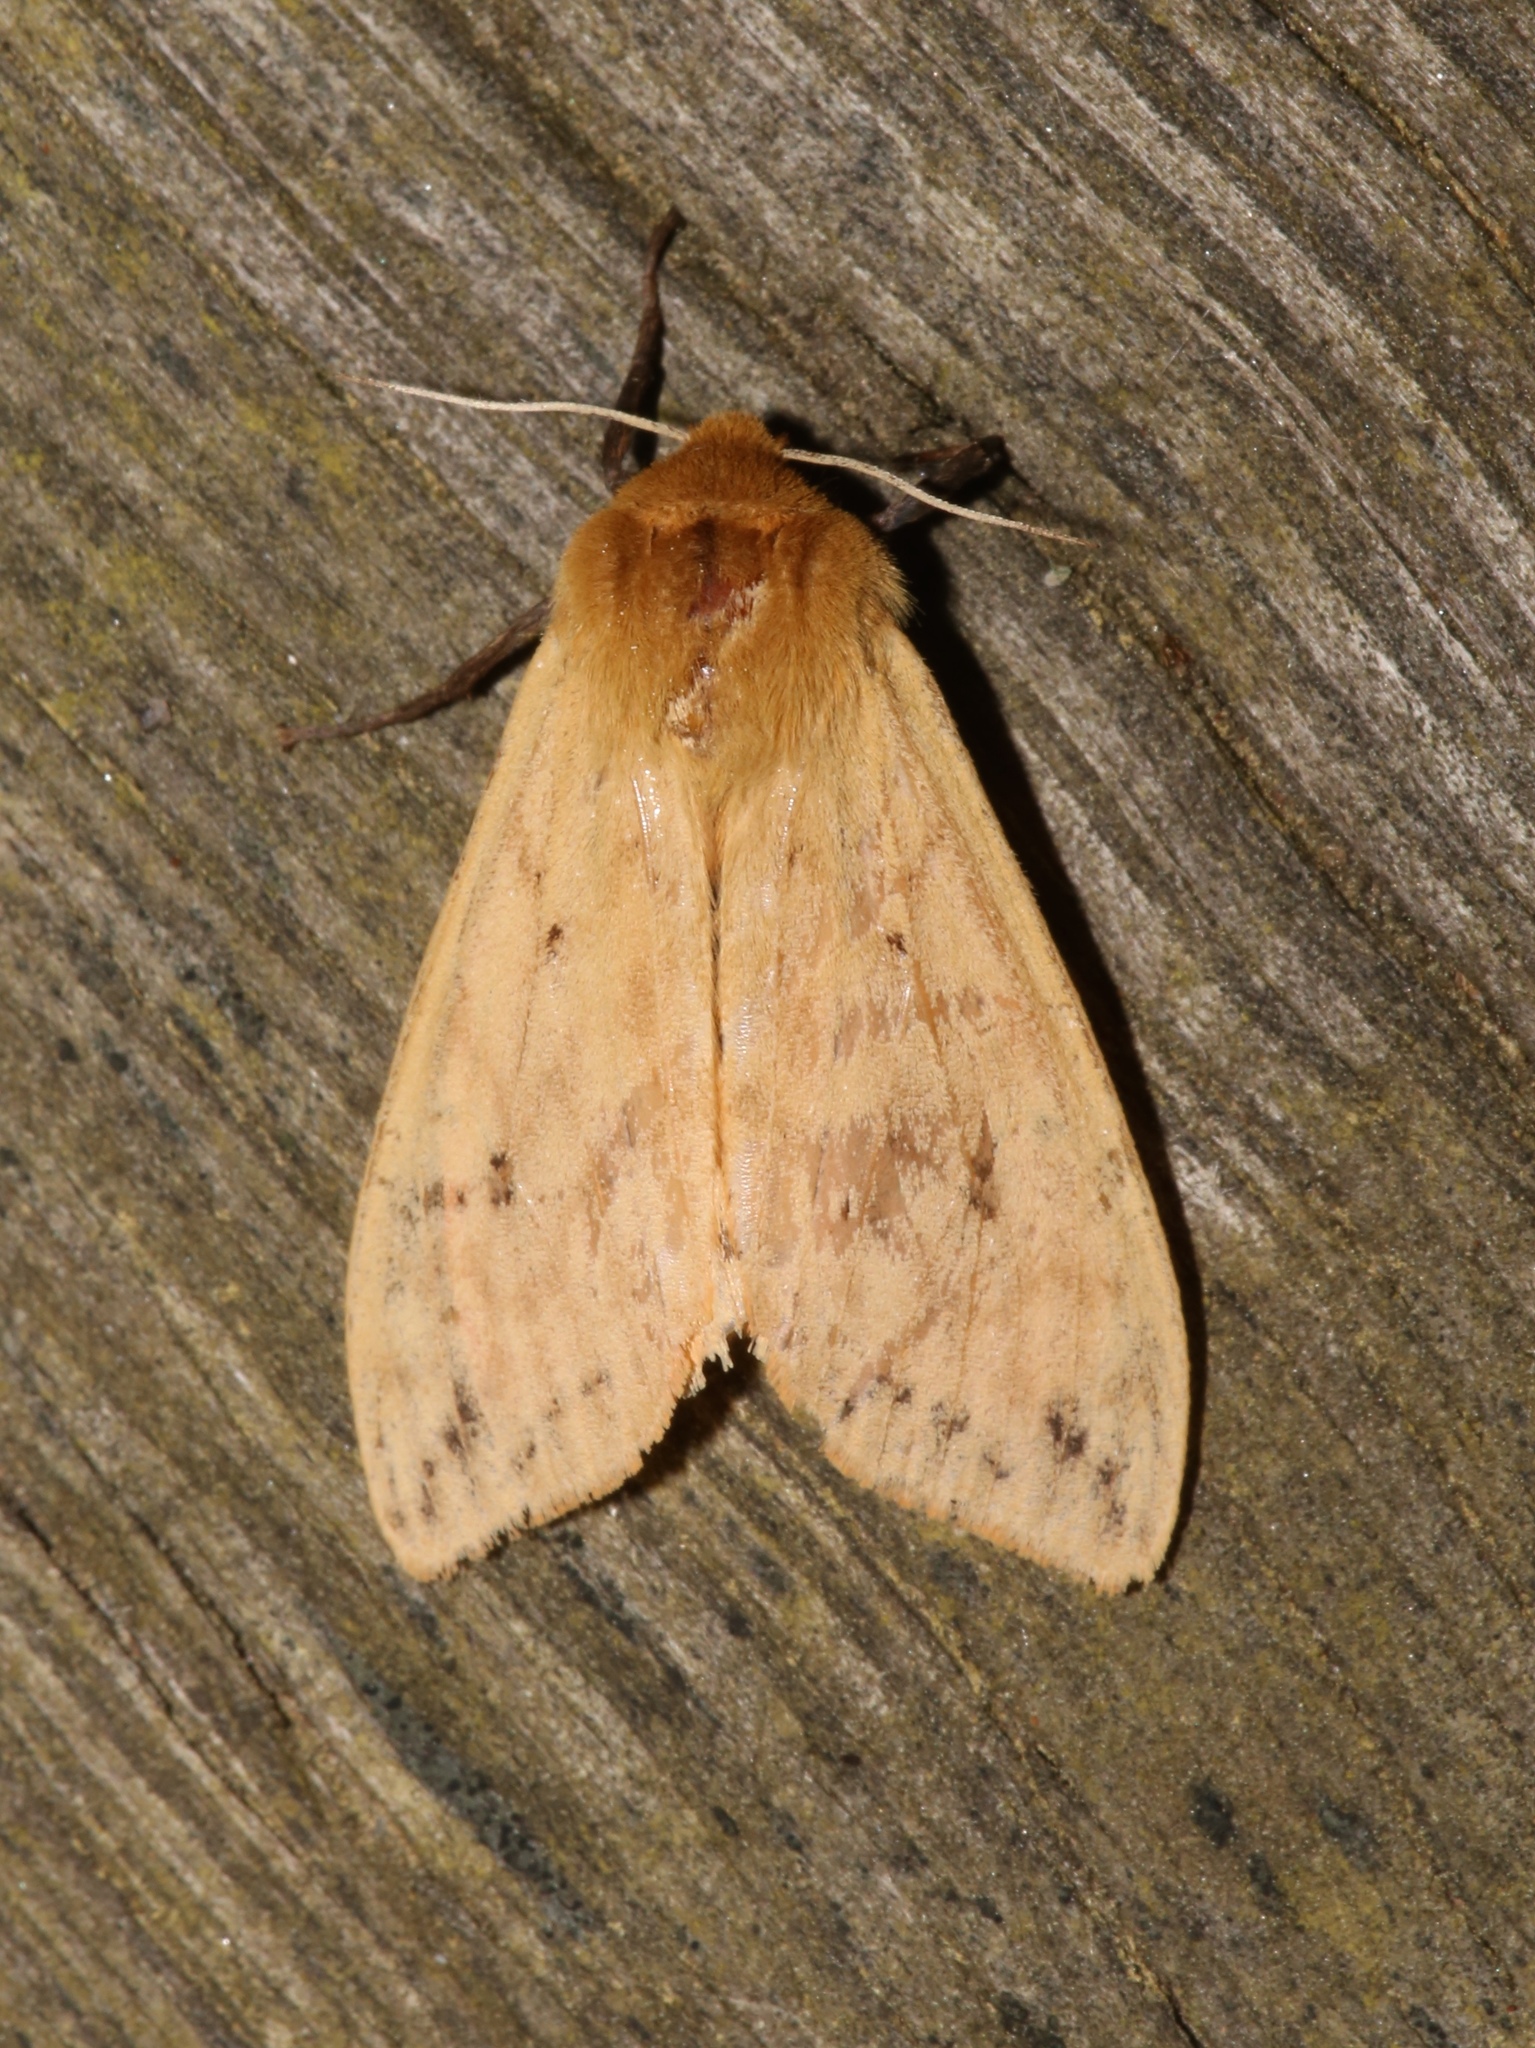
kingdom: Animalia
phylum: Arthropoda
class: Insecta
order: Lepidoptera
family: Erebidae
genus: Pyrrharctia
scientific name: Pyrrharctia isabella
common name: Isabella tiger moth
